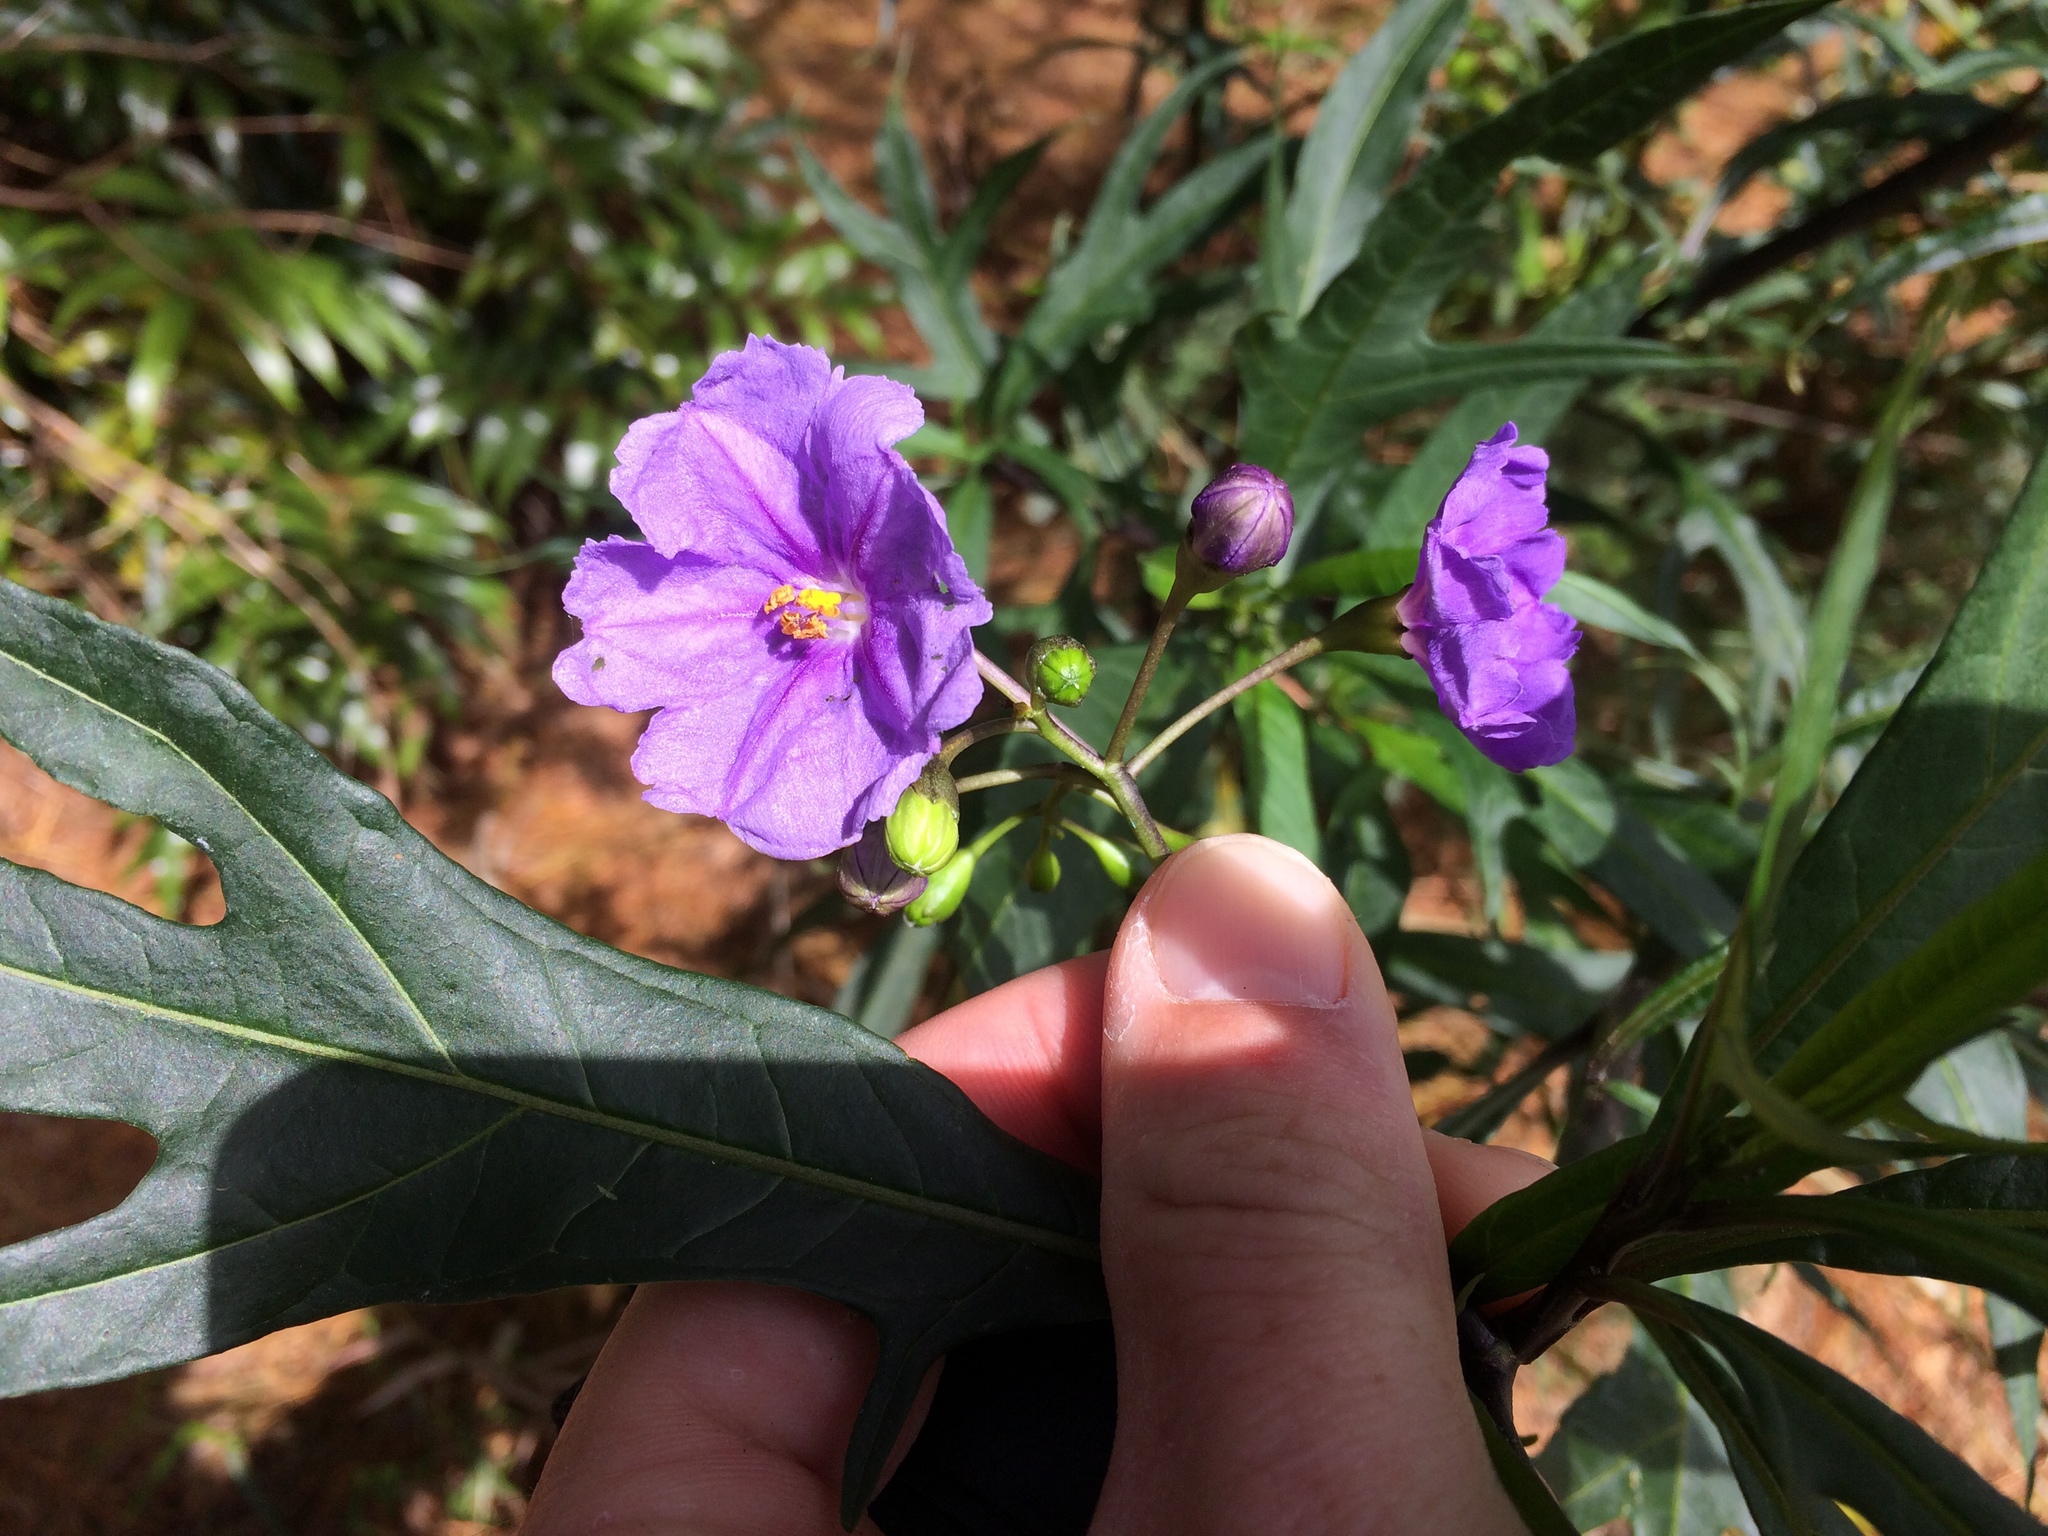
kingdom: Plantae
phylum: Tracheophyta
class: Magnoliopsida
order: Solanales
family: Solanaceae
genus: Solanum
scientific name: Solanum laciniatum
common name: Kangaroo-apple
